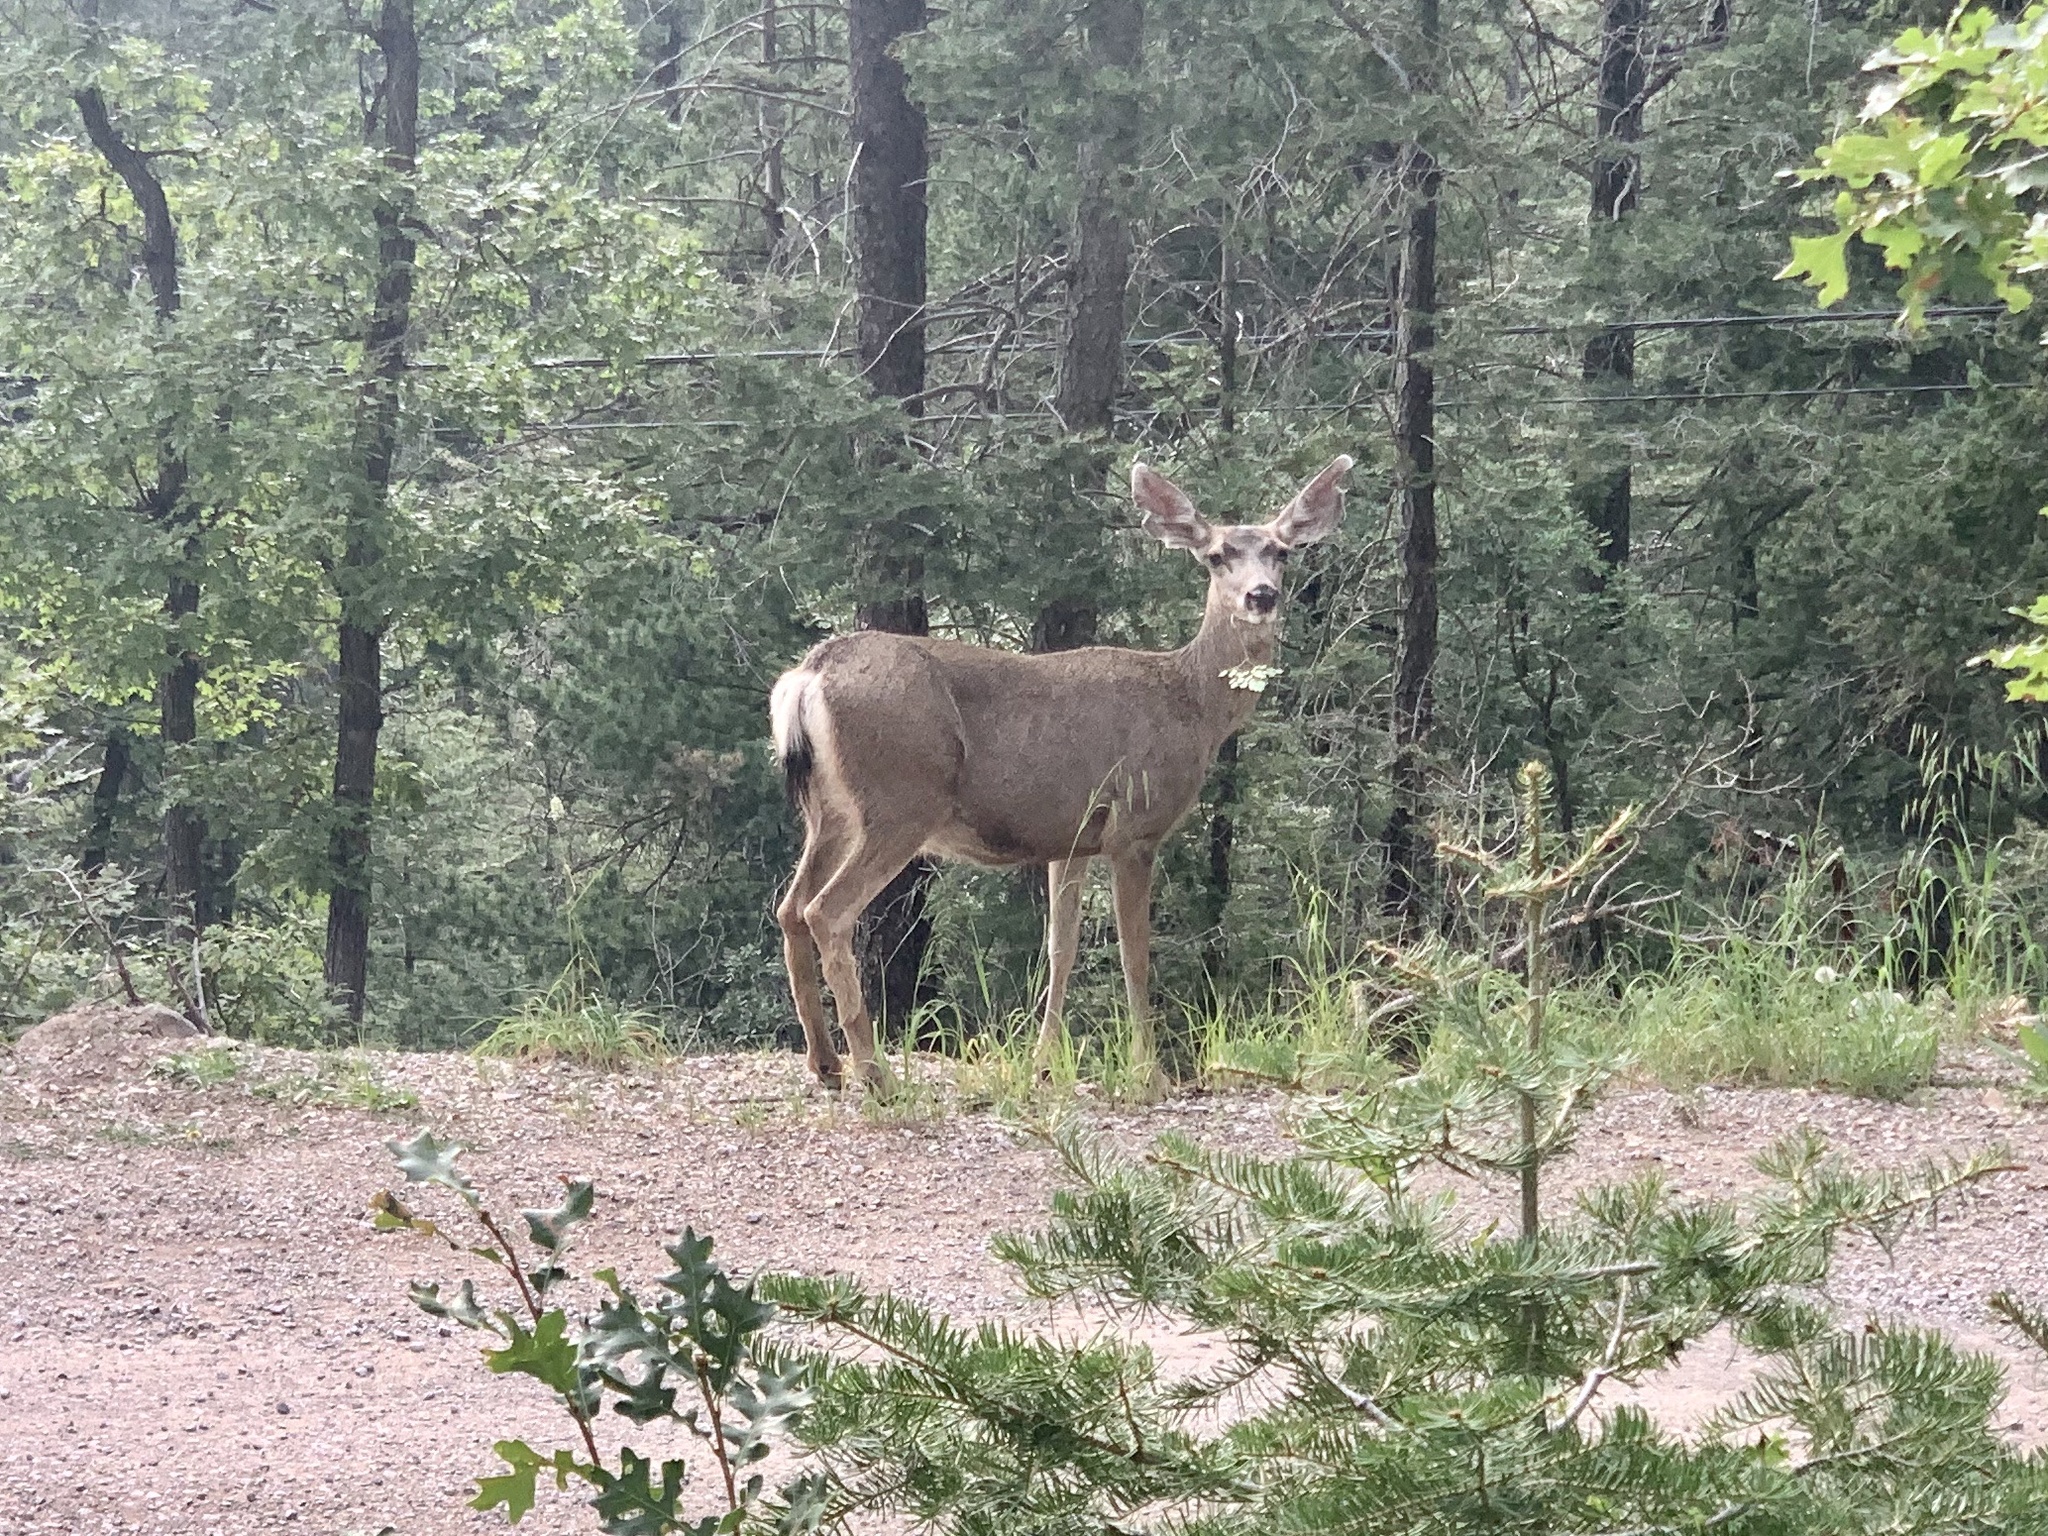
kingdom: Animalia
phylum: Chordata
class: Mammalia
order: Artiodactyla
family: Cervidae
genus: Odocoileus
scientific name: Odocoileus hemionus
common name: Mule deer
